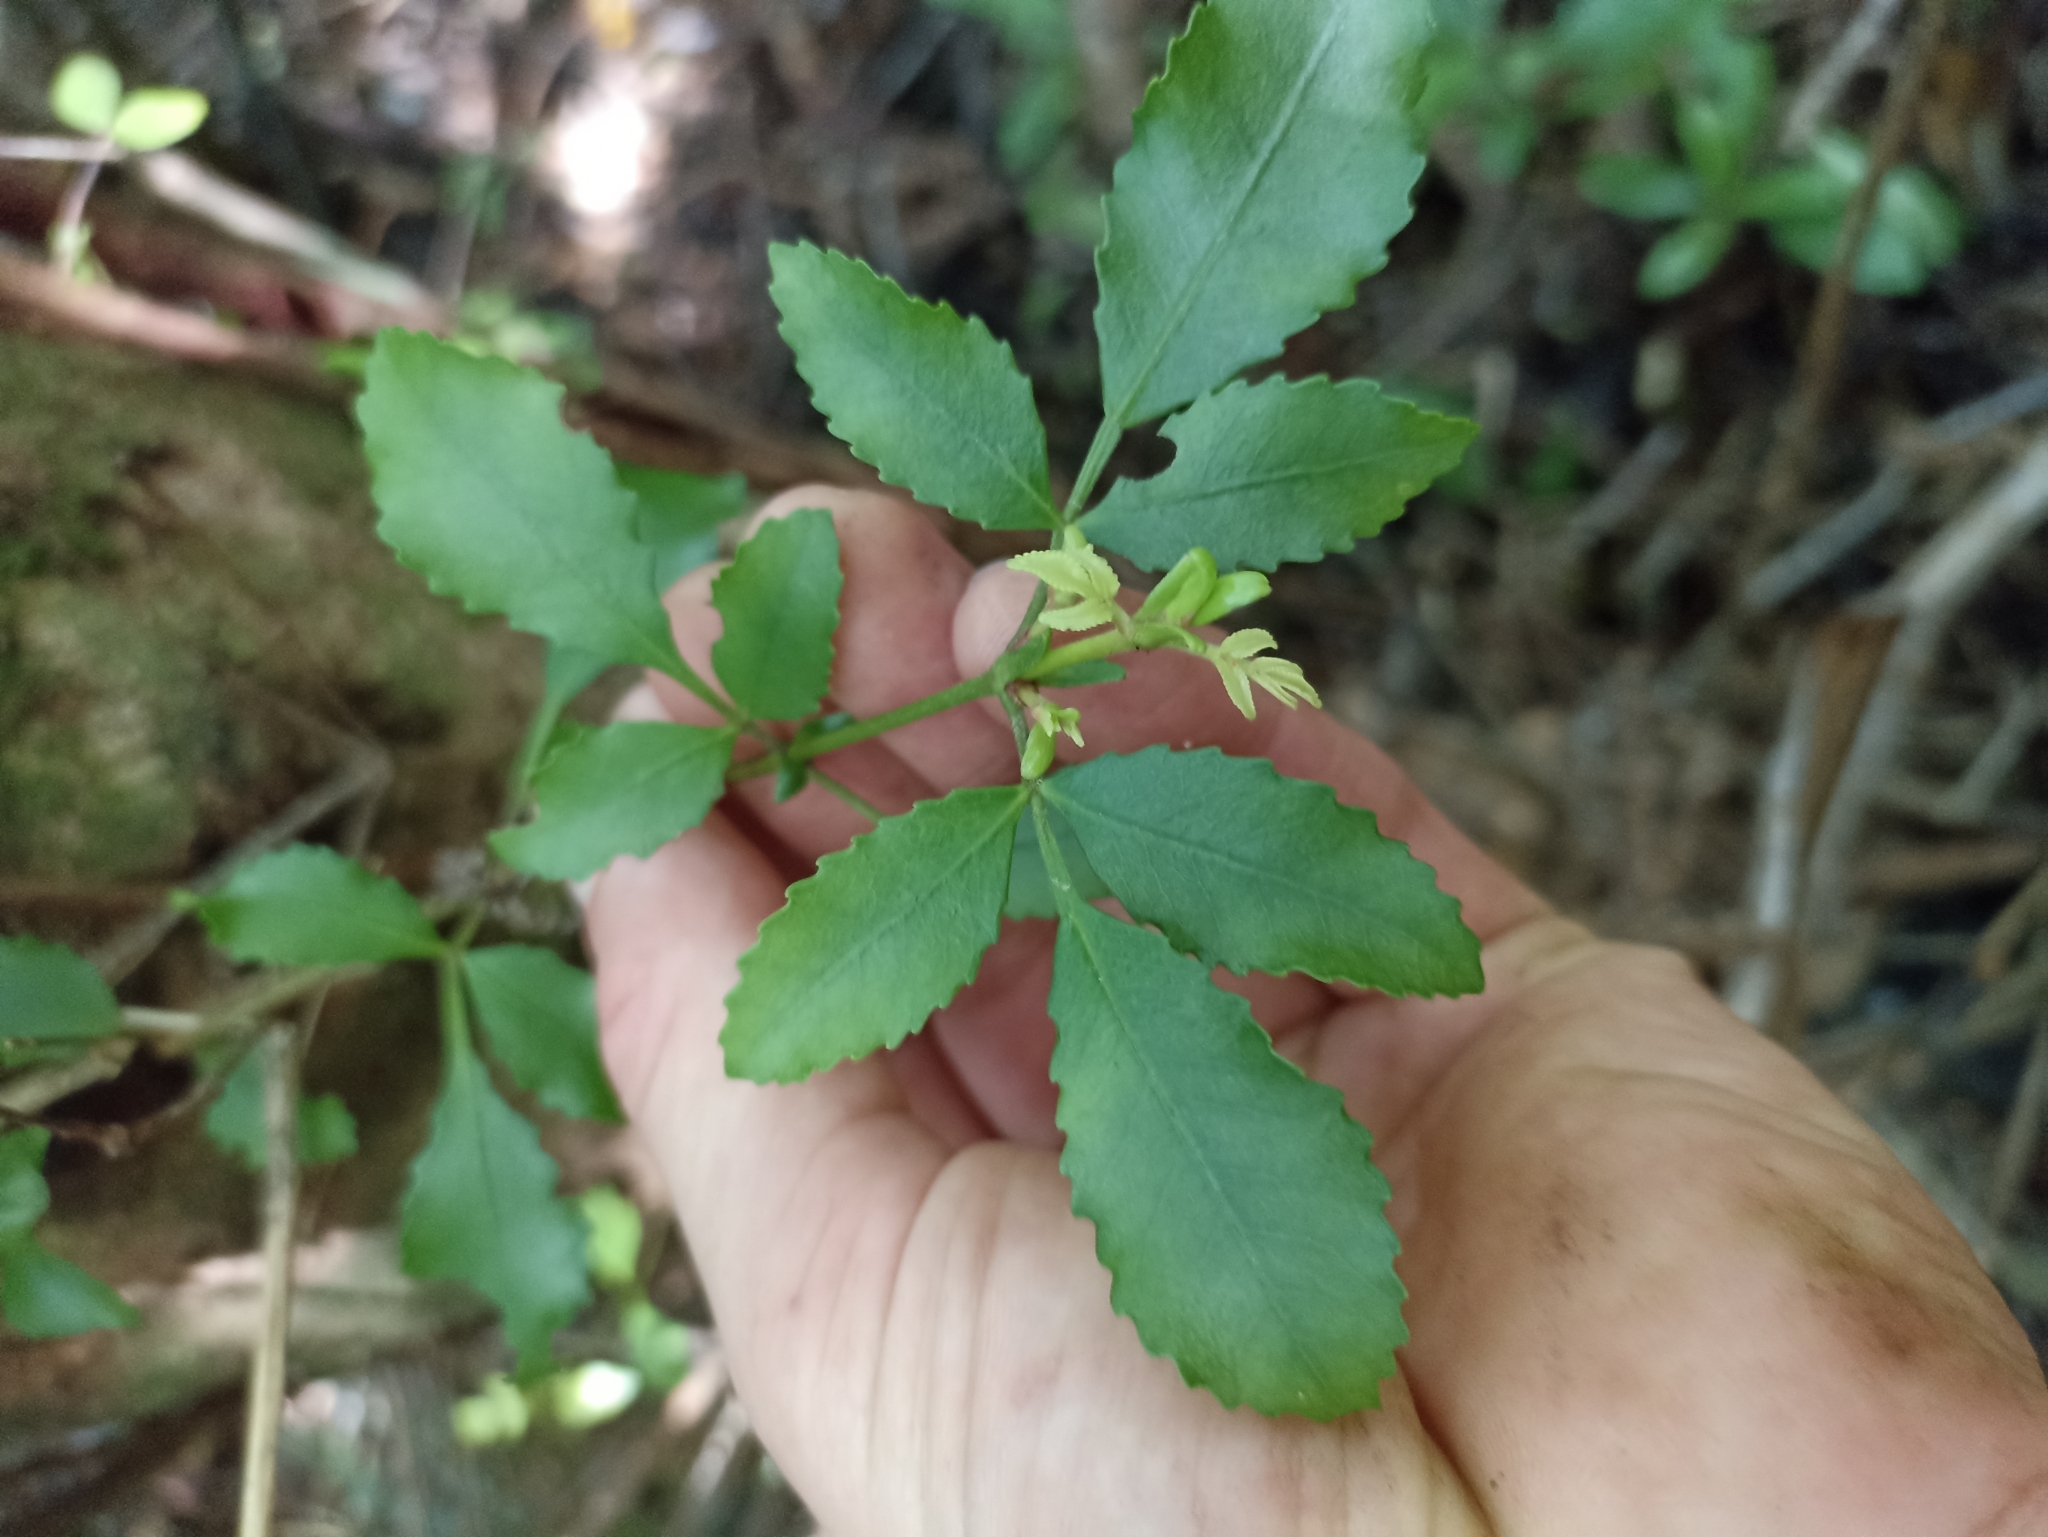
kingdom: Plantae
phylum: Tracheophyta
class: Magnoliopsida
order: Oxalidales
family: Cunoniaceae
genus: Pterophylla
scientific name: Pterophylla sylvicola
